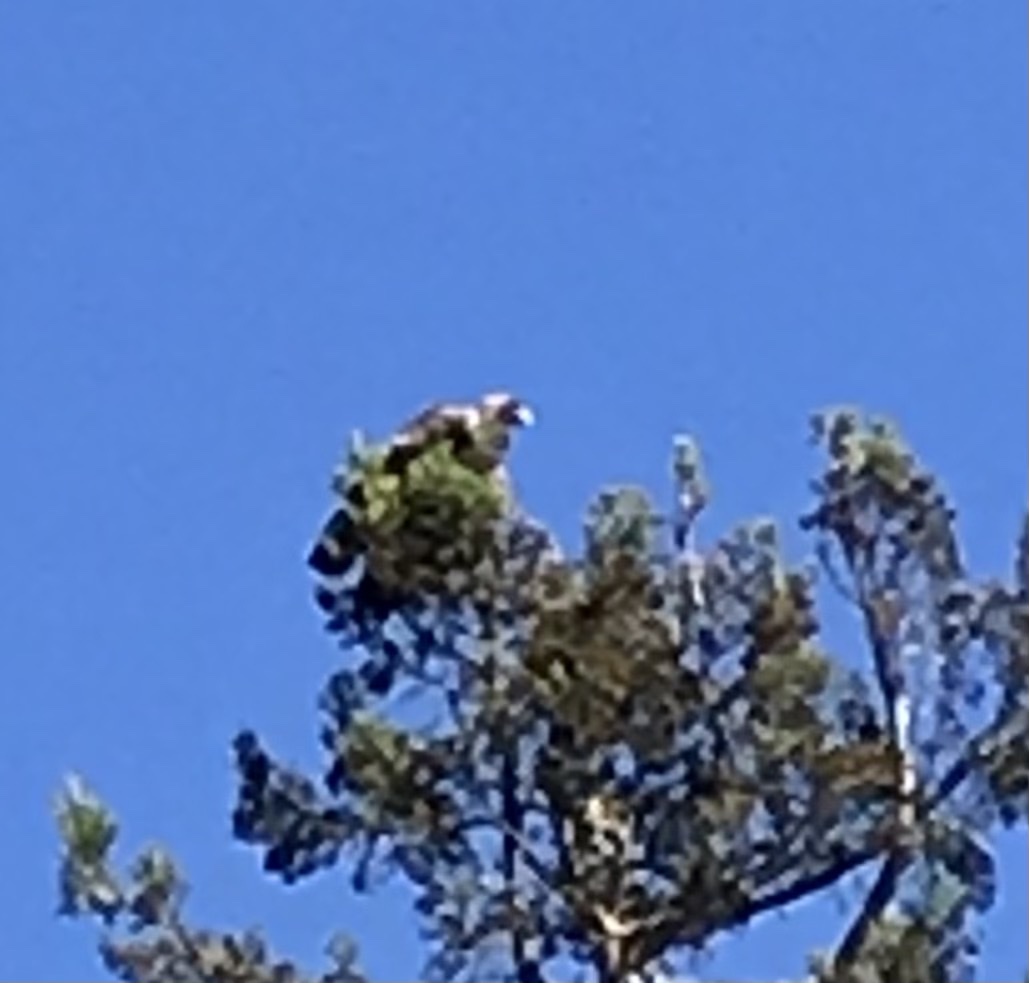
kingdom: Animalia
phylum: Chordata
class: Aves
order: Accipitriformes
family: Accipitridae
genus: Aquila
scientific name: Aquila chrysaetos
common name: Golden eagle
